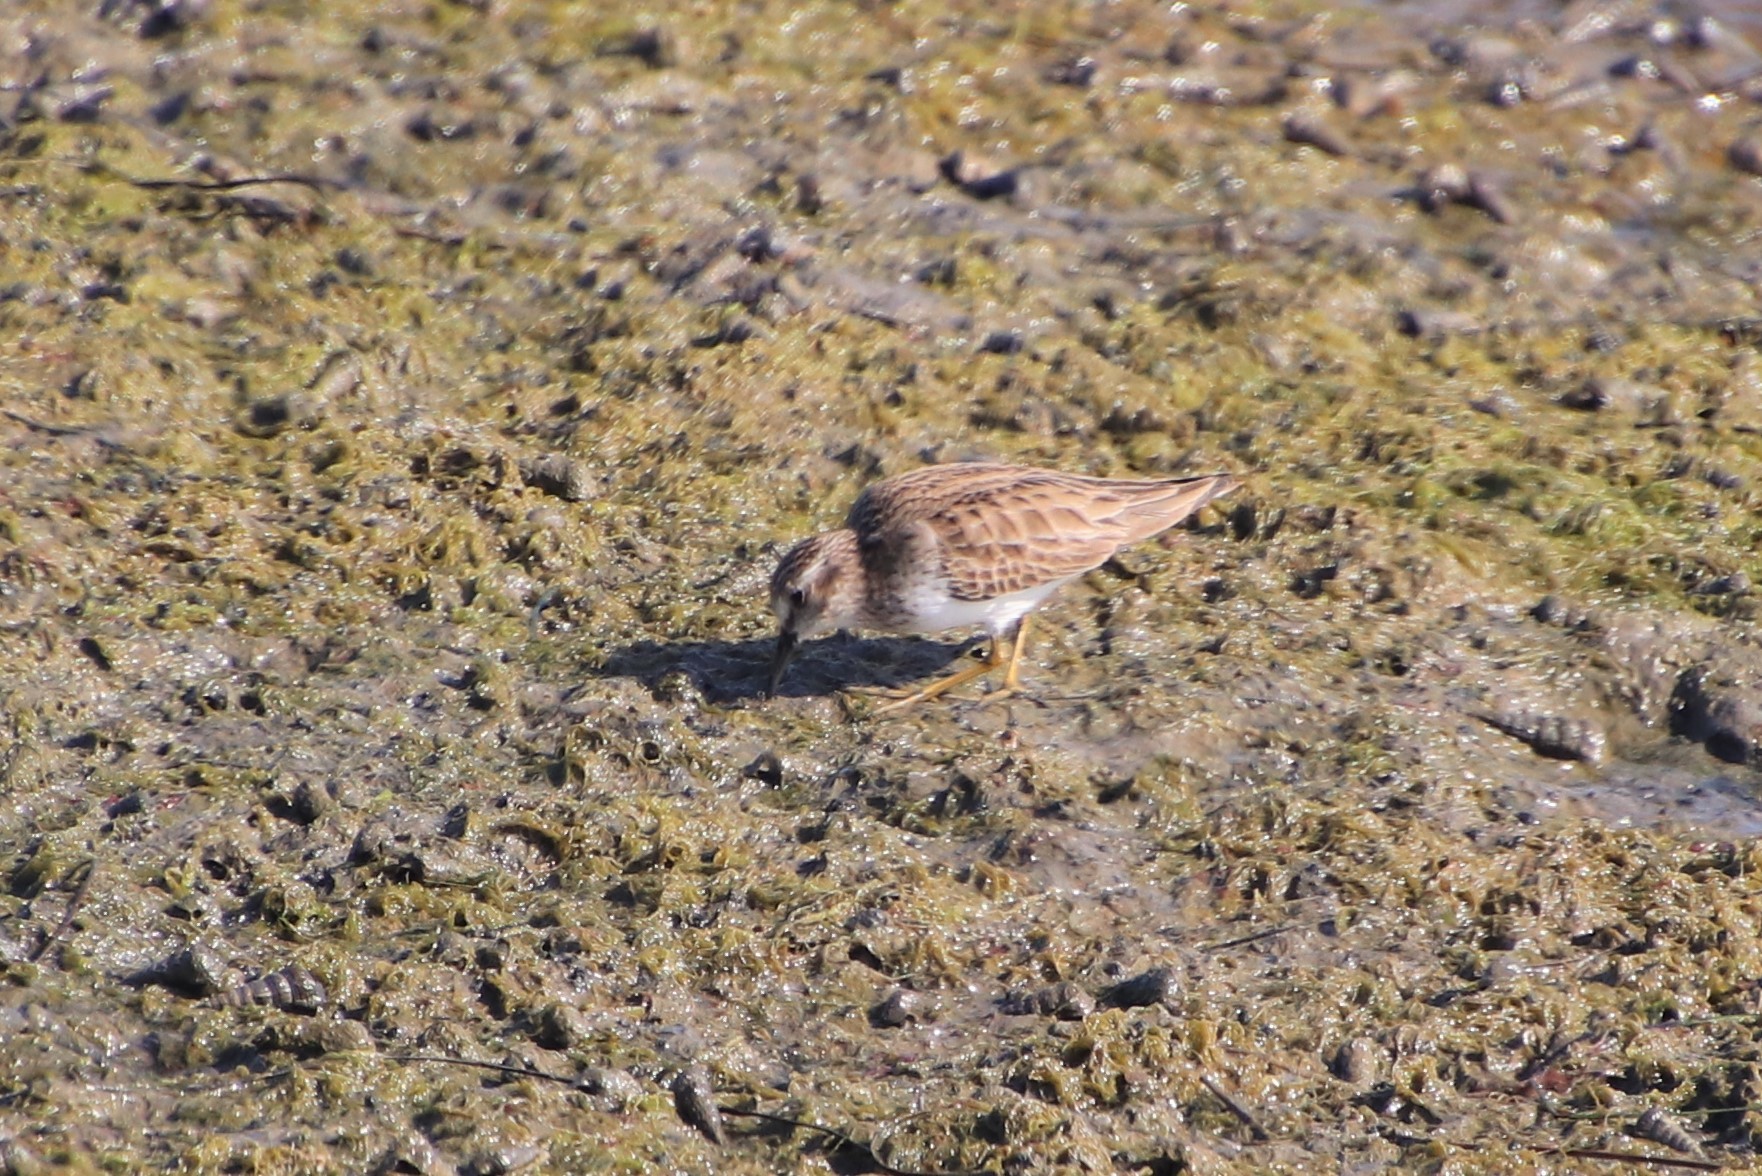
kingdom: Animalia
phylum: Chordata
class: Aves
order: Charadriiformes
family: Scolopacidae
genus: Calidris
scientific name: Calidris minutilla
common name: Least sandpiper
